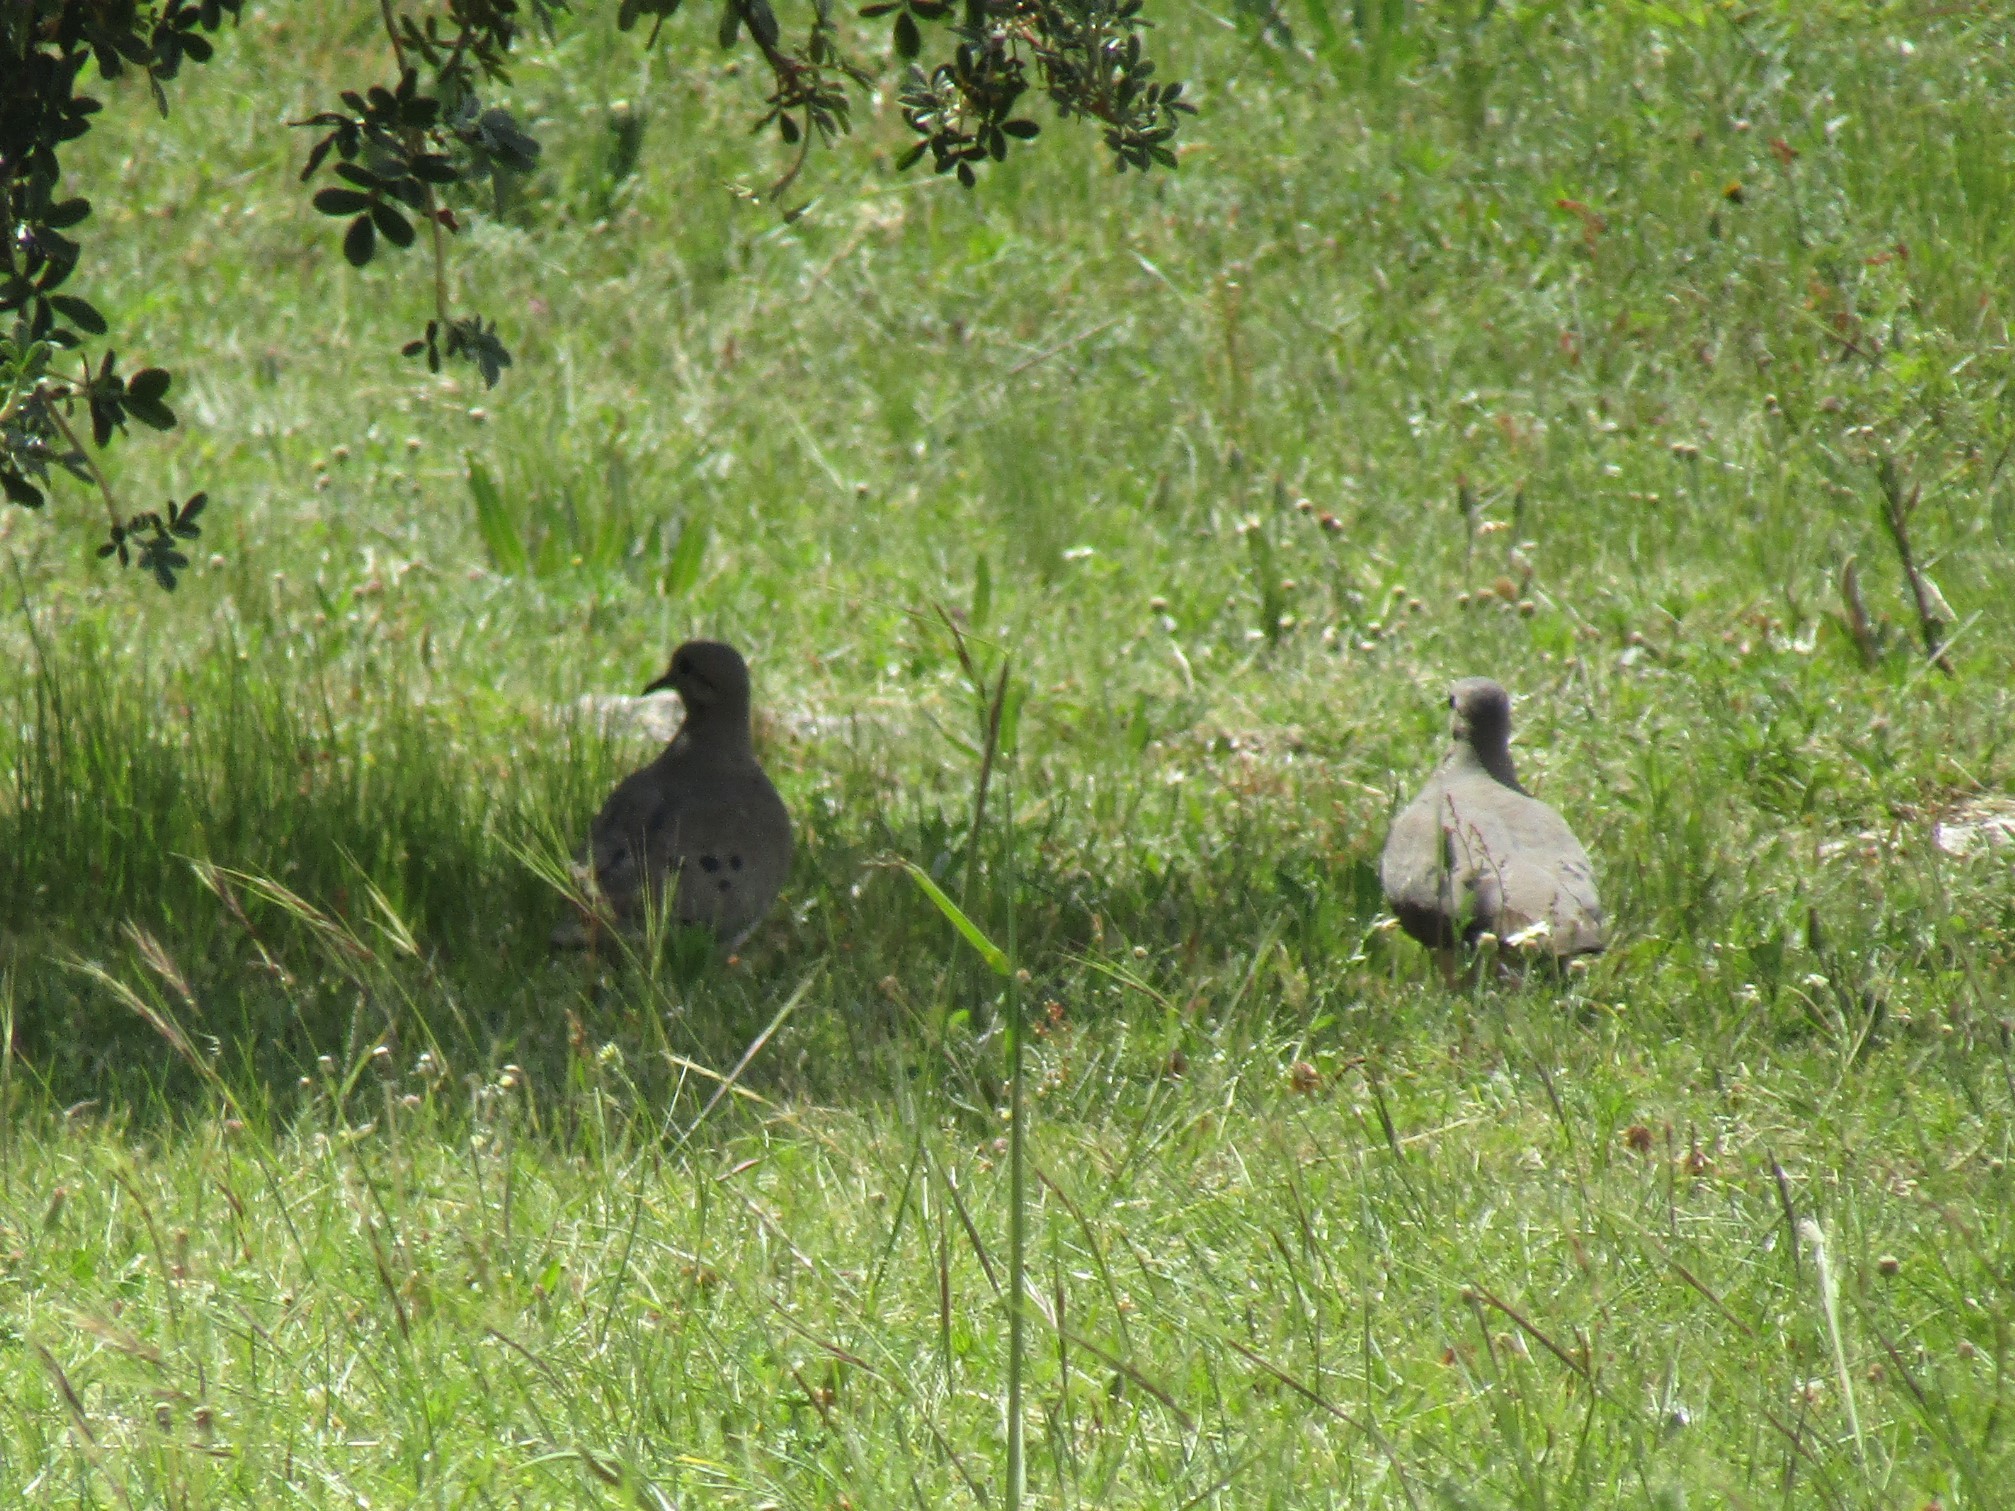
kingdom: Animalia
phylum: Chordata
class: Aves
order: Columbiformes
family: Columbidae
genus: Zenaida
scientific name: Zenaida auriculata
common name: Eared dove
